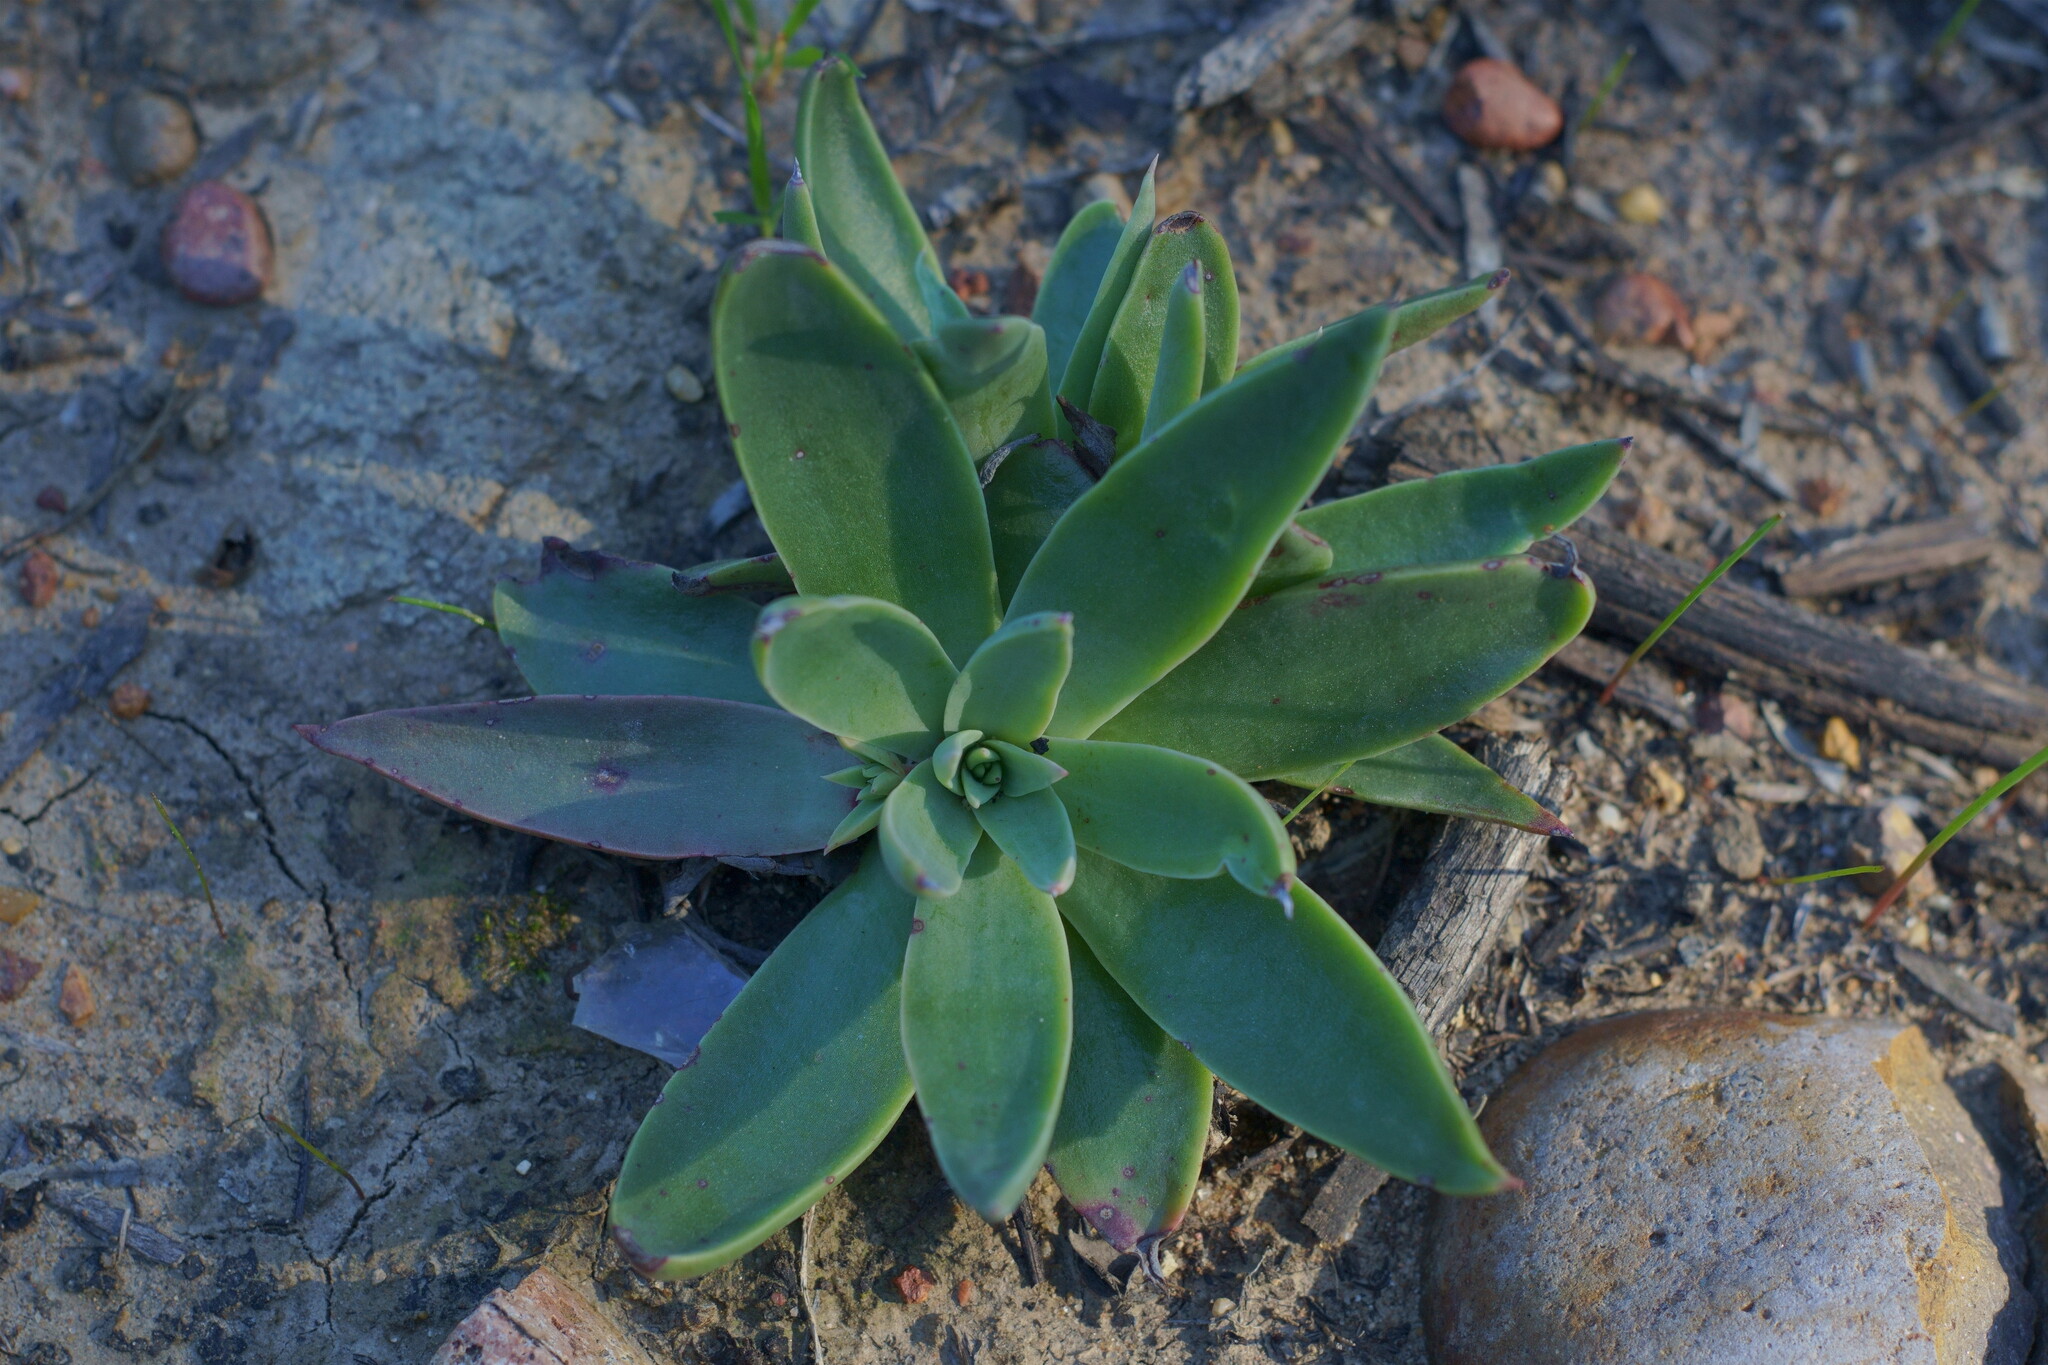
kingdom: Plantae
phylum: Tracheophyta
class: Magnoliopsida
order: Saxifragales
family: Crassulaceae
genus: Dudleya
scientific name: Dudleya lanceolata
